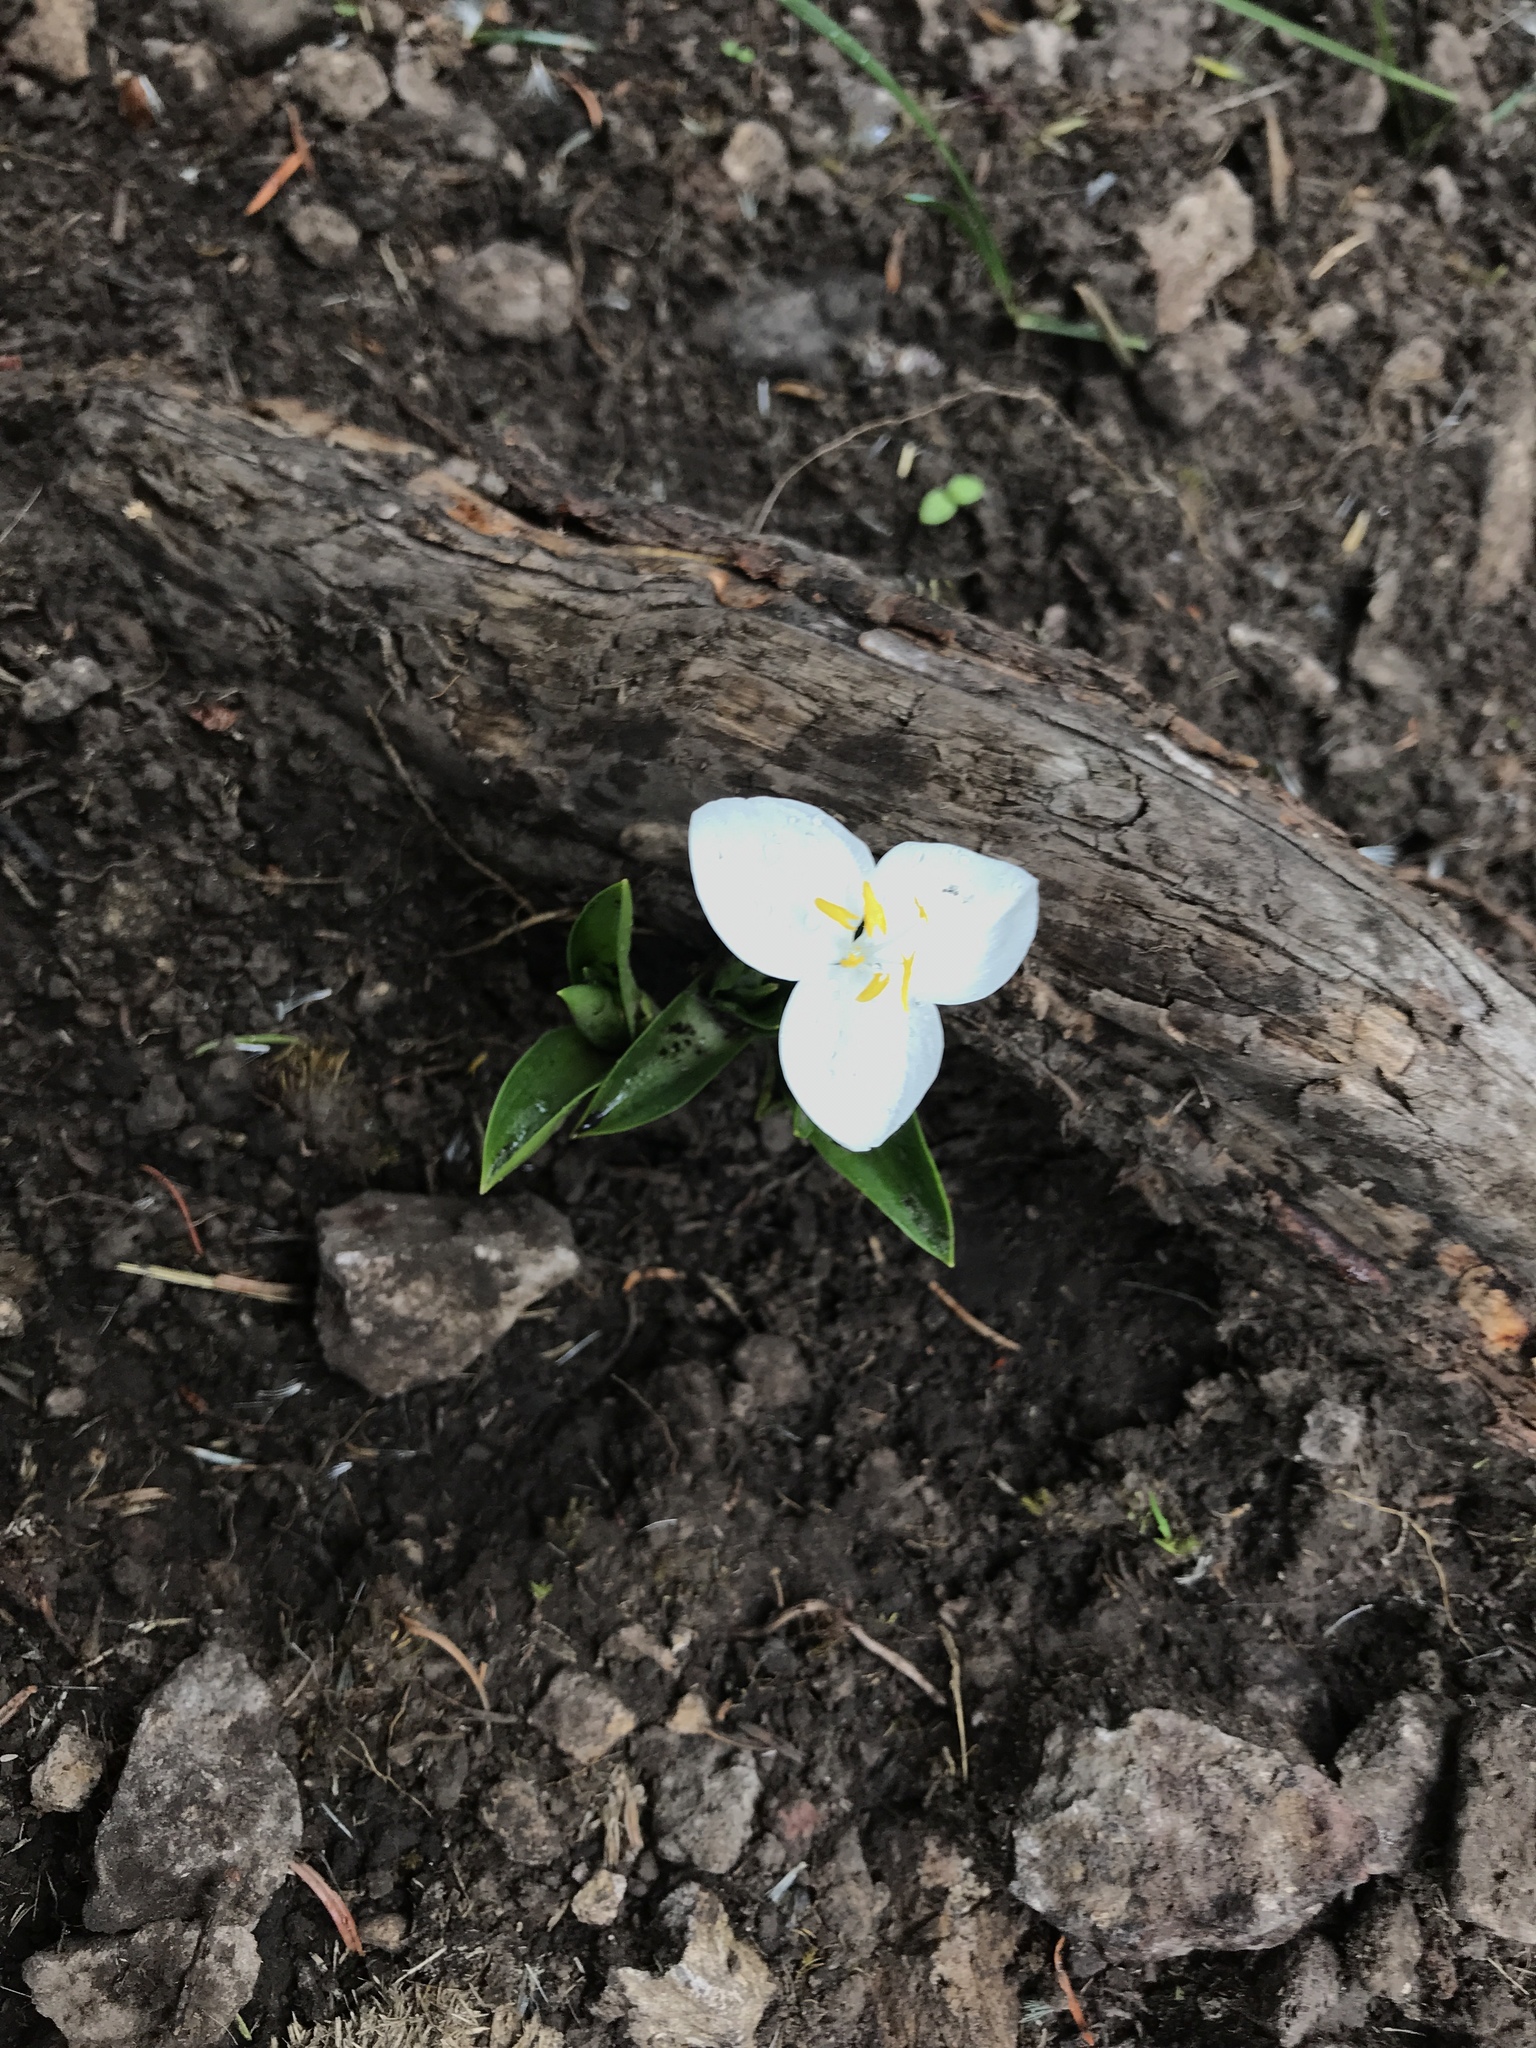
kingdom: Plantae
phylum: Tracheophyta
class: Liliopsida
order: Commelinales
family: Commelinaceae
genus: Weldenia
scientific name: Weldenia candida
